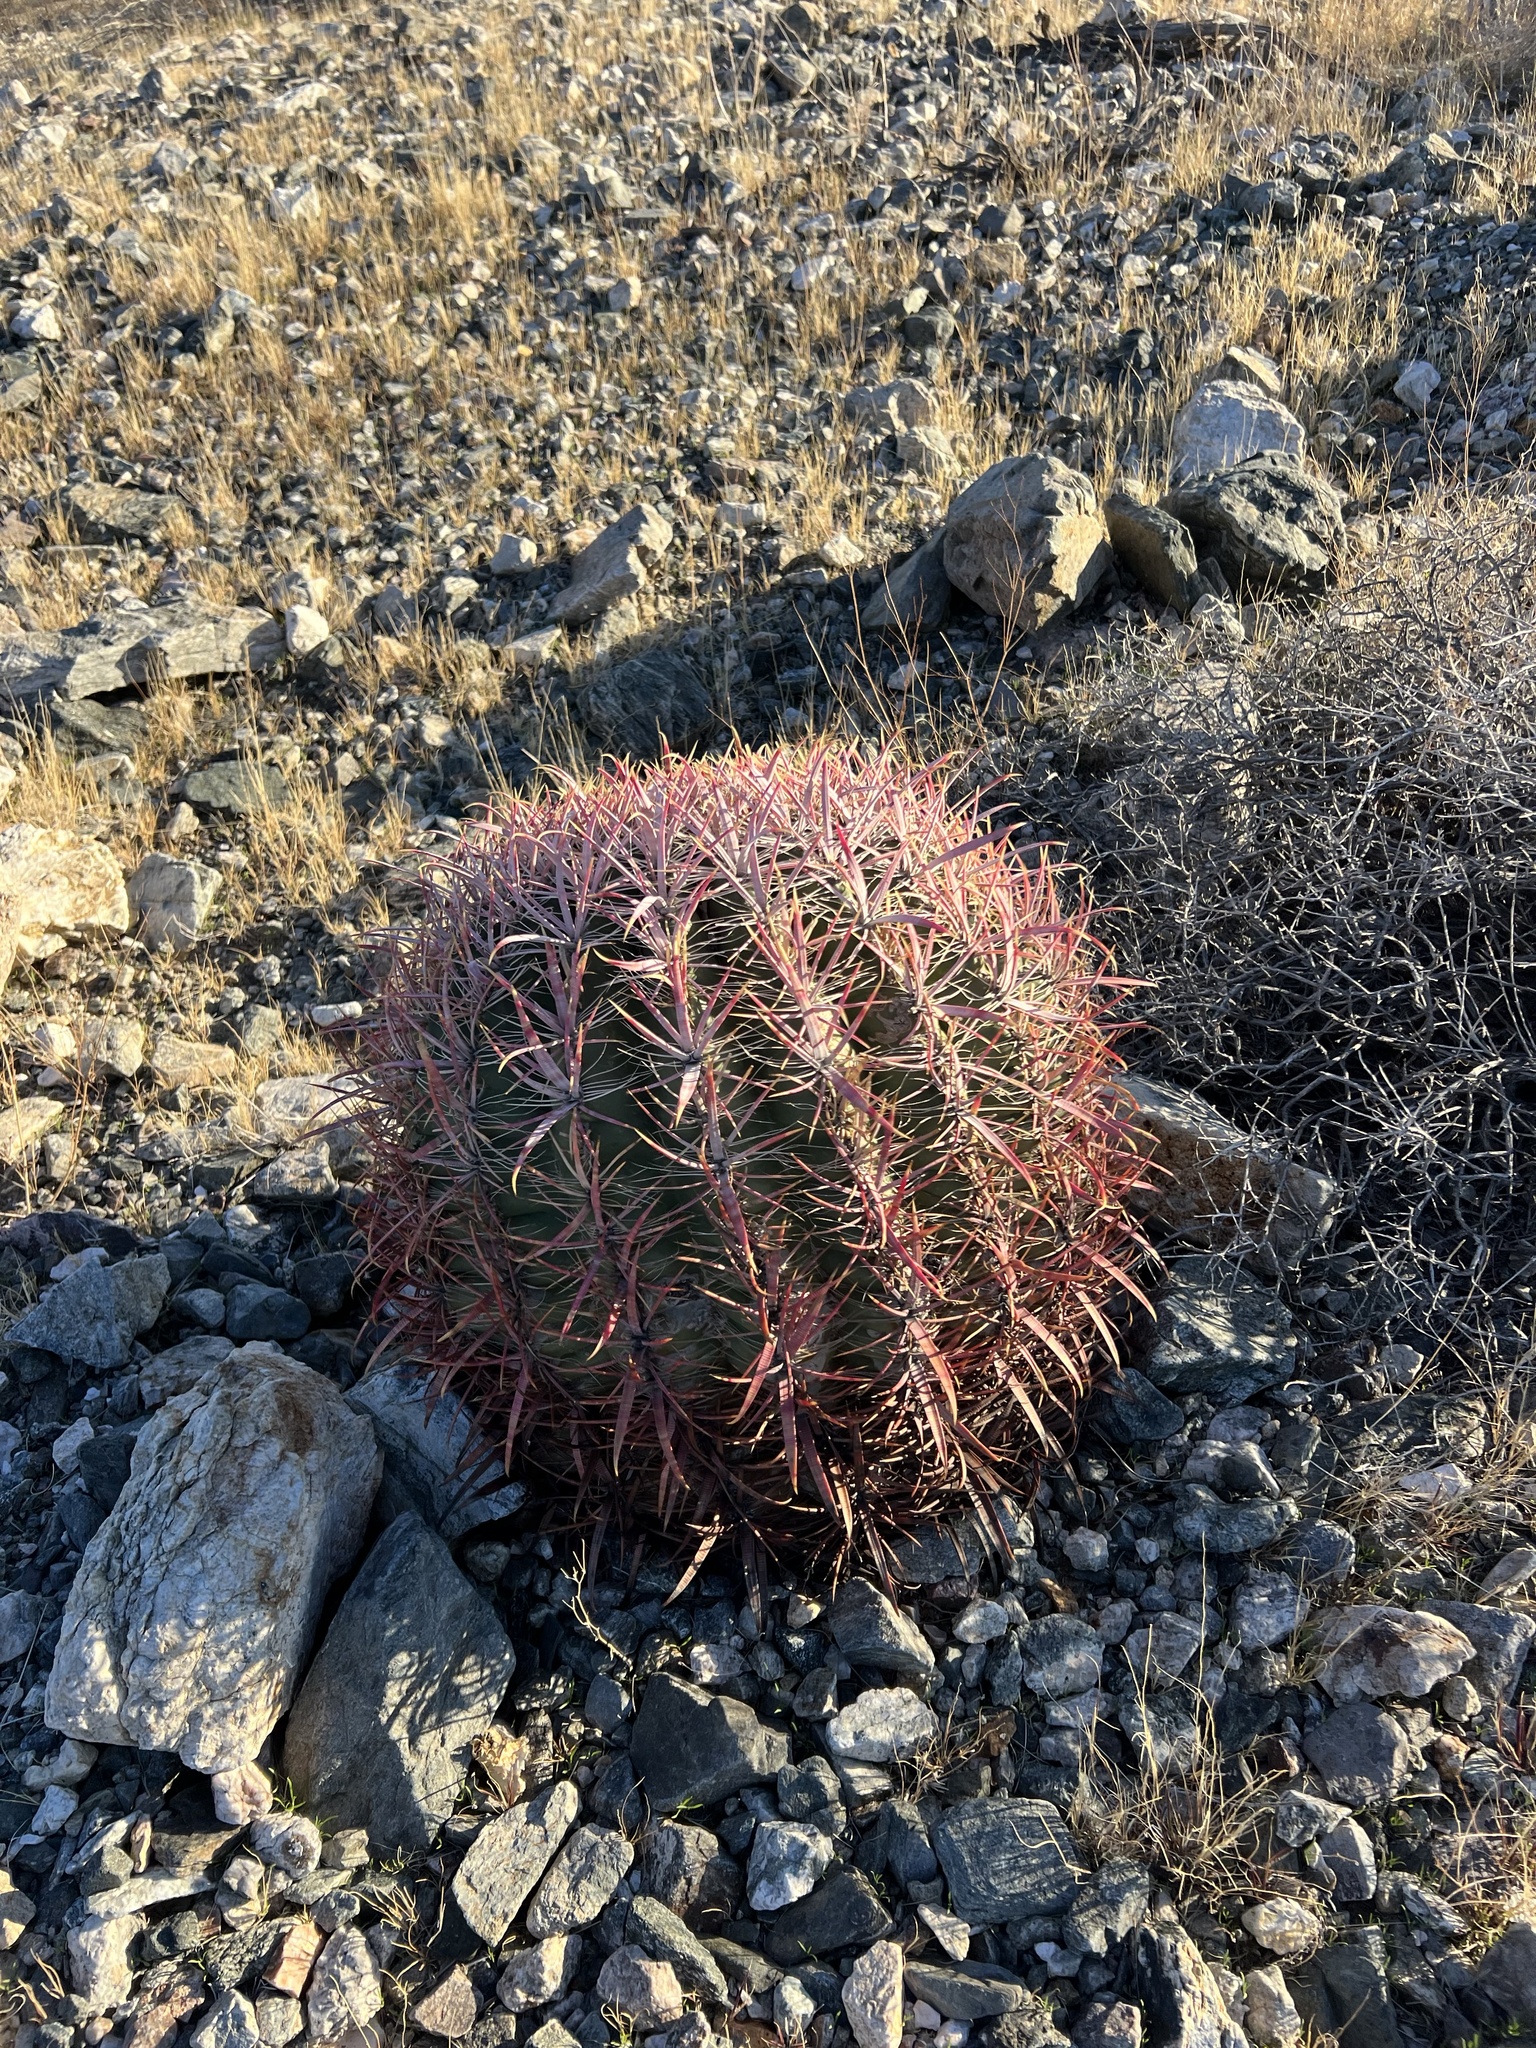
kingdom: Plantae
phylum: Tracheophyta
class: Magnoliopsida
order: Caryophyllales
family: Cactaceae
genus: Ferocactus
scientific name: Ferocactus cylindraceus
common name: California barrel cactus
